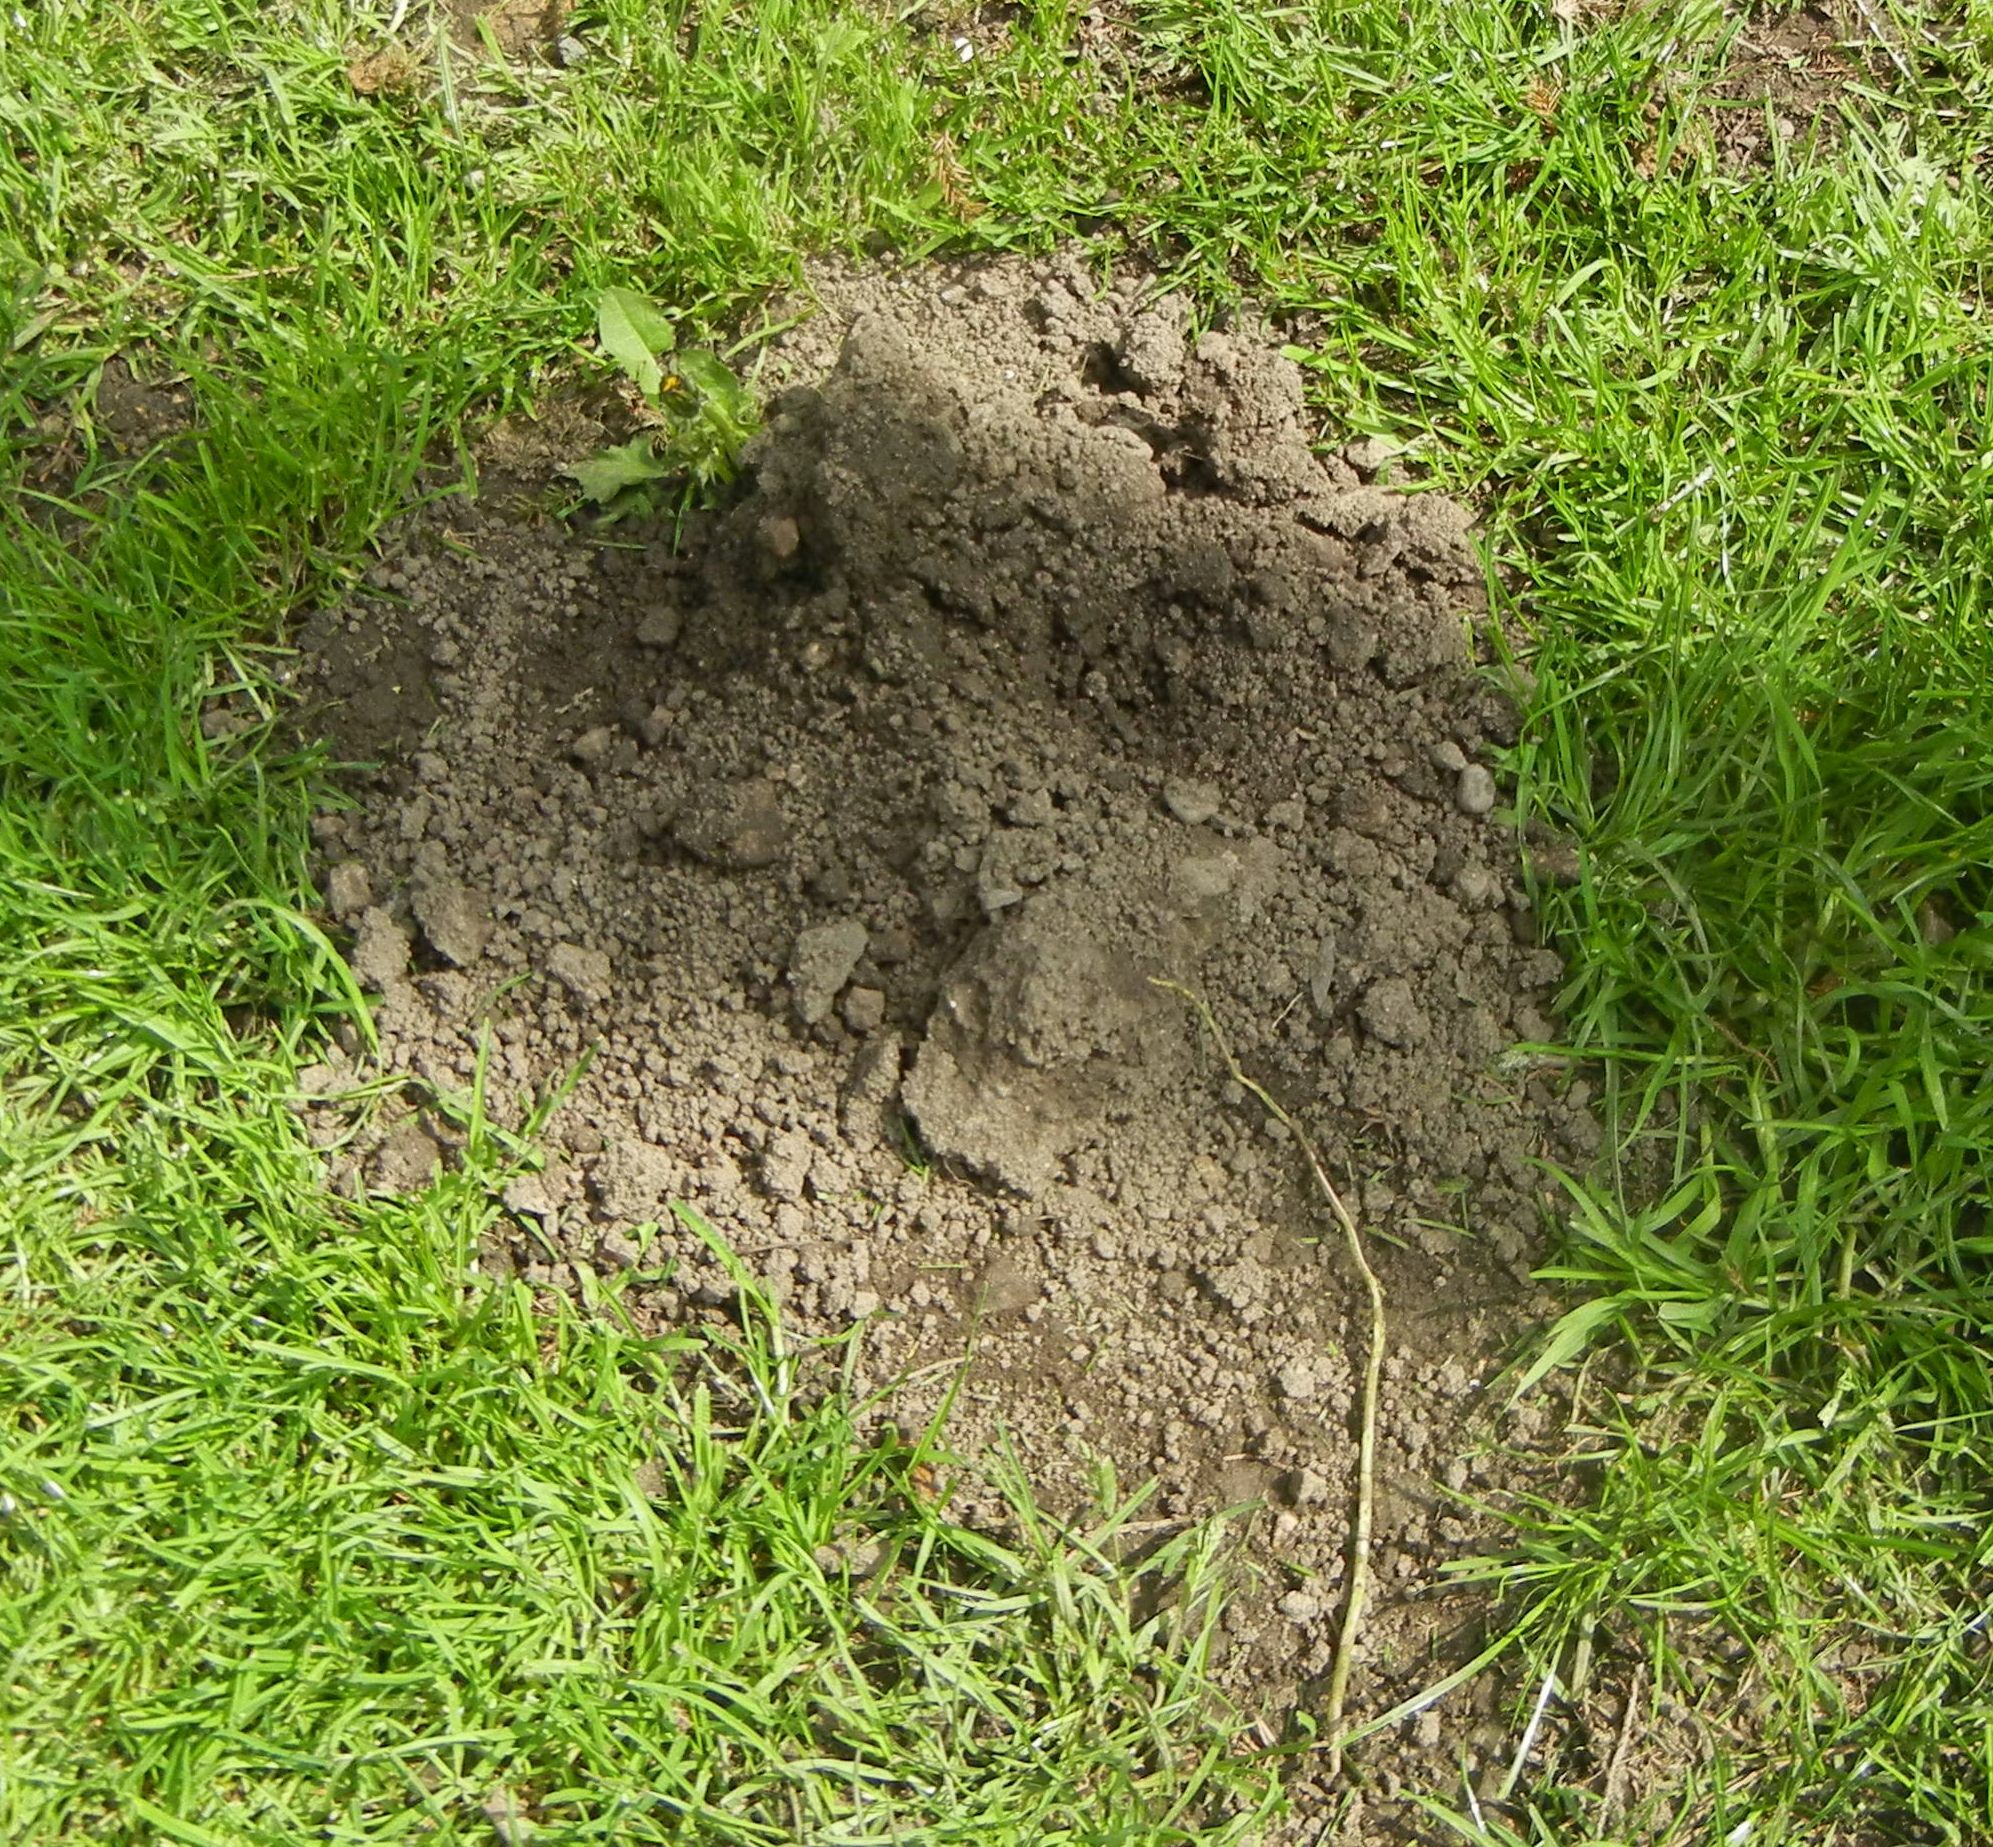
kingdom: Animalia
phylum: Chordata
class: Mammalia
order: Soricomorpha
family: Talpidae
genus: Talpa
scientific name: Talpa europaea
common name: European mole
